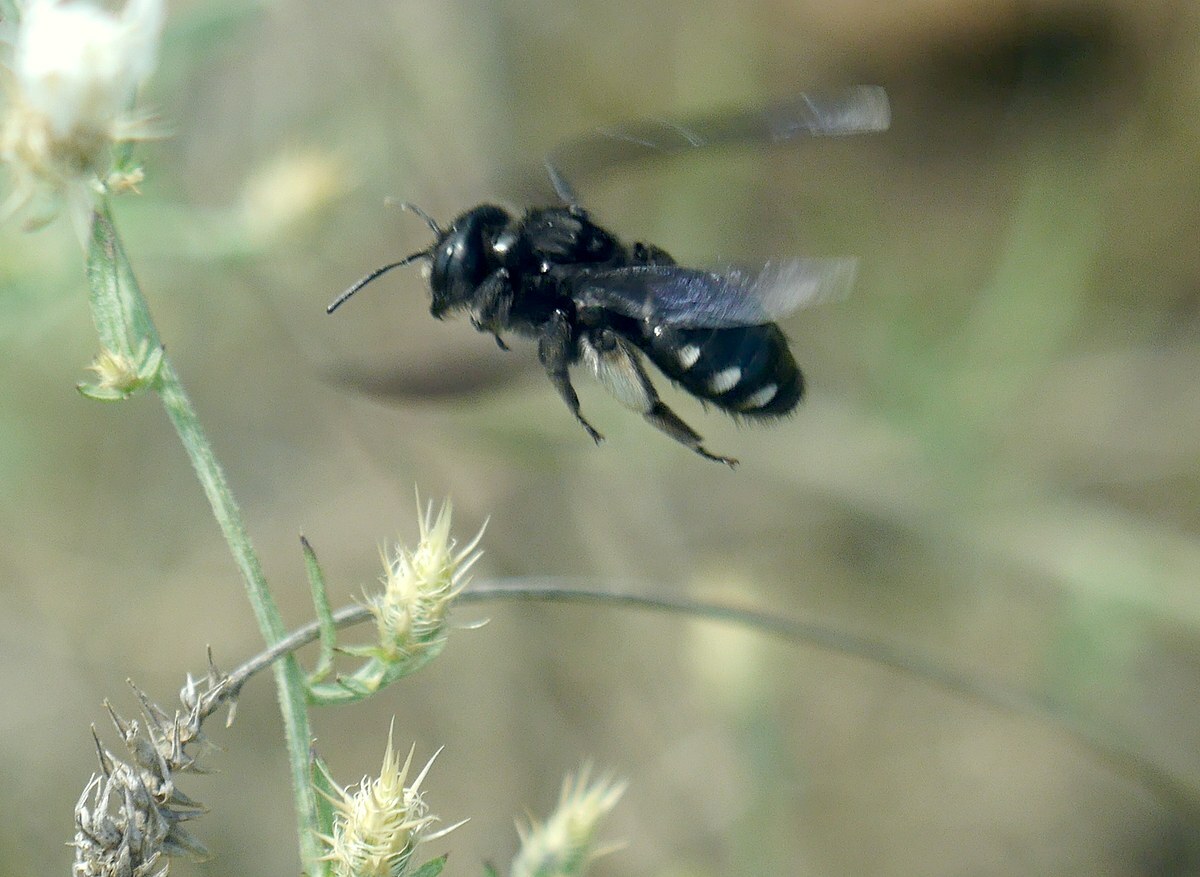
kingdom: Animalia
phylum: Arthropoda
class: Insecta
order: Hymenoptera
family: Andrenidae
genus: Andrena
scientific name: Andrena albopunctata
